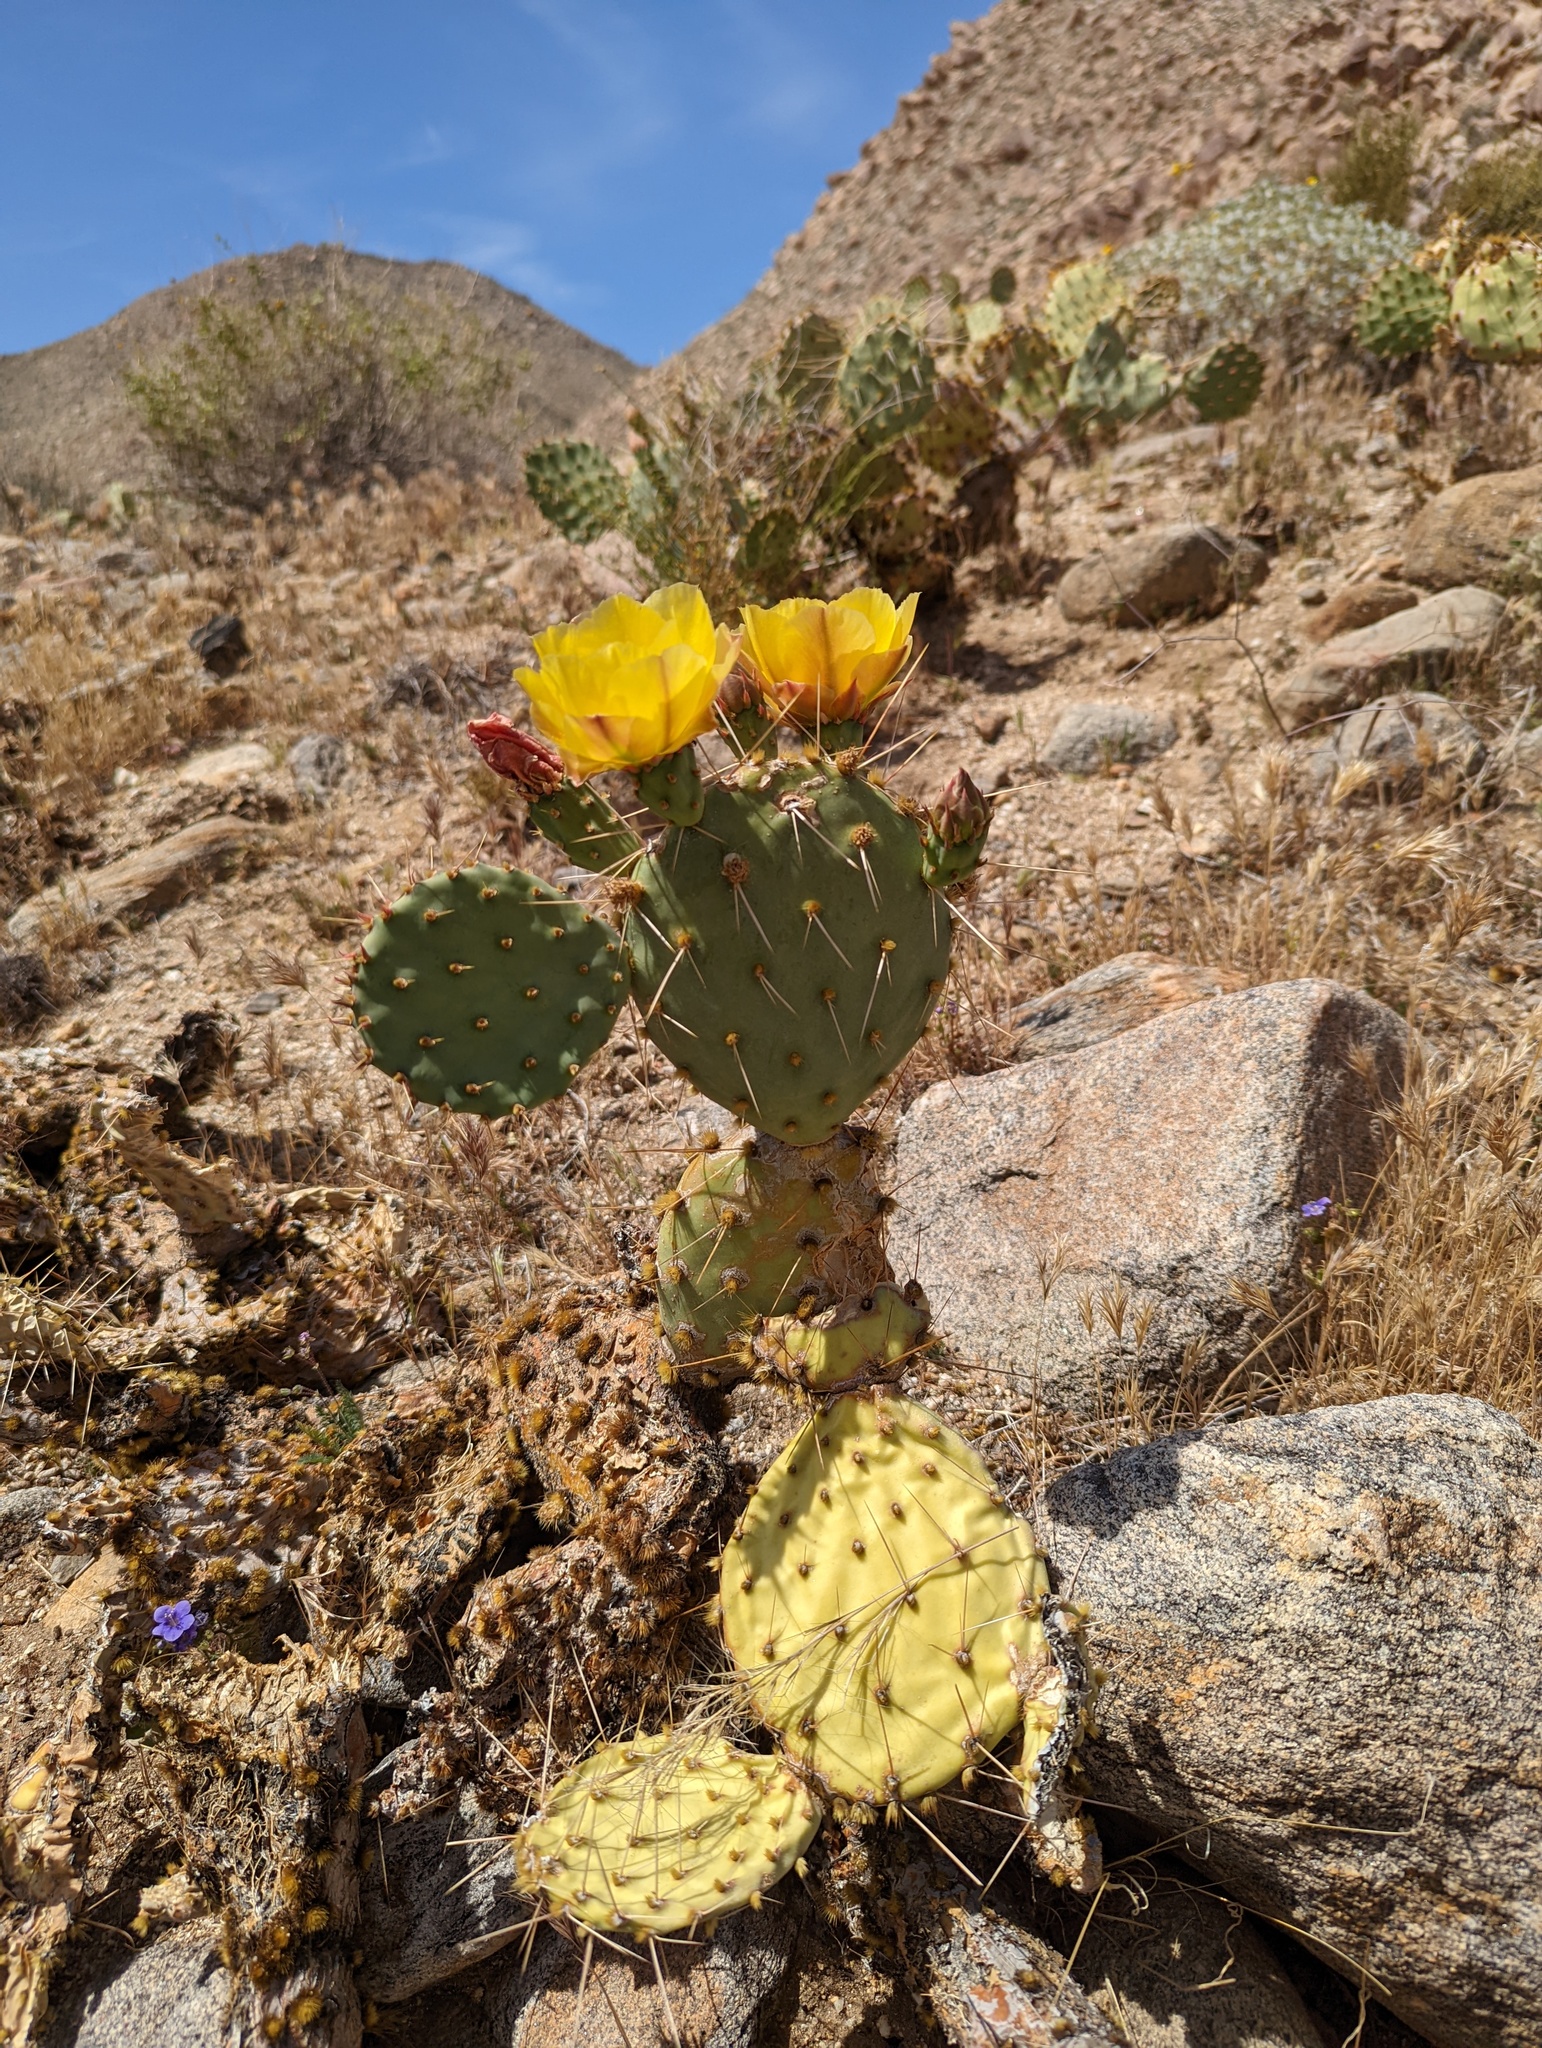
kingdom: Plantae
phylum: Tracheophyta
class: Magnoliopsida
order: Caryophyllales
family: Cactaceae
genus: Opuntia
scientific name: Opuntia phaeacantha
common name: New mexico prickly-pear
